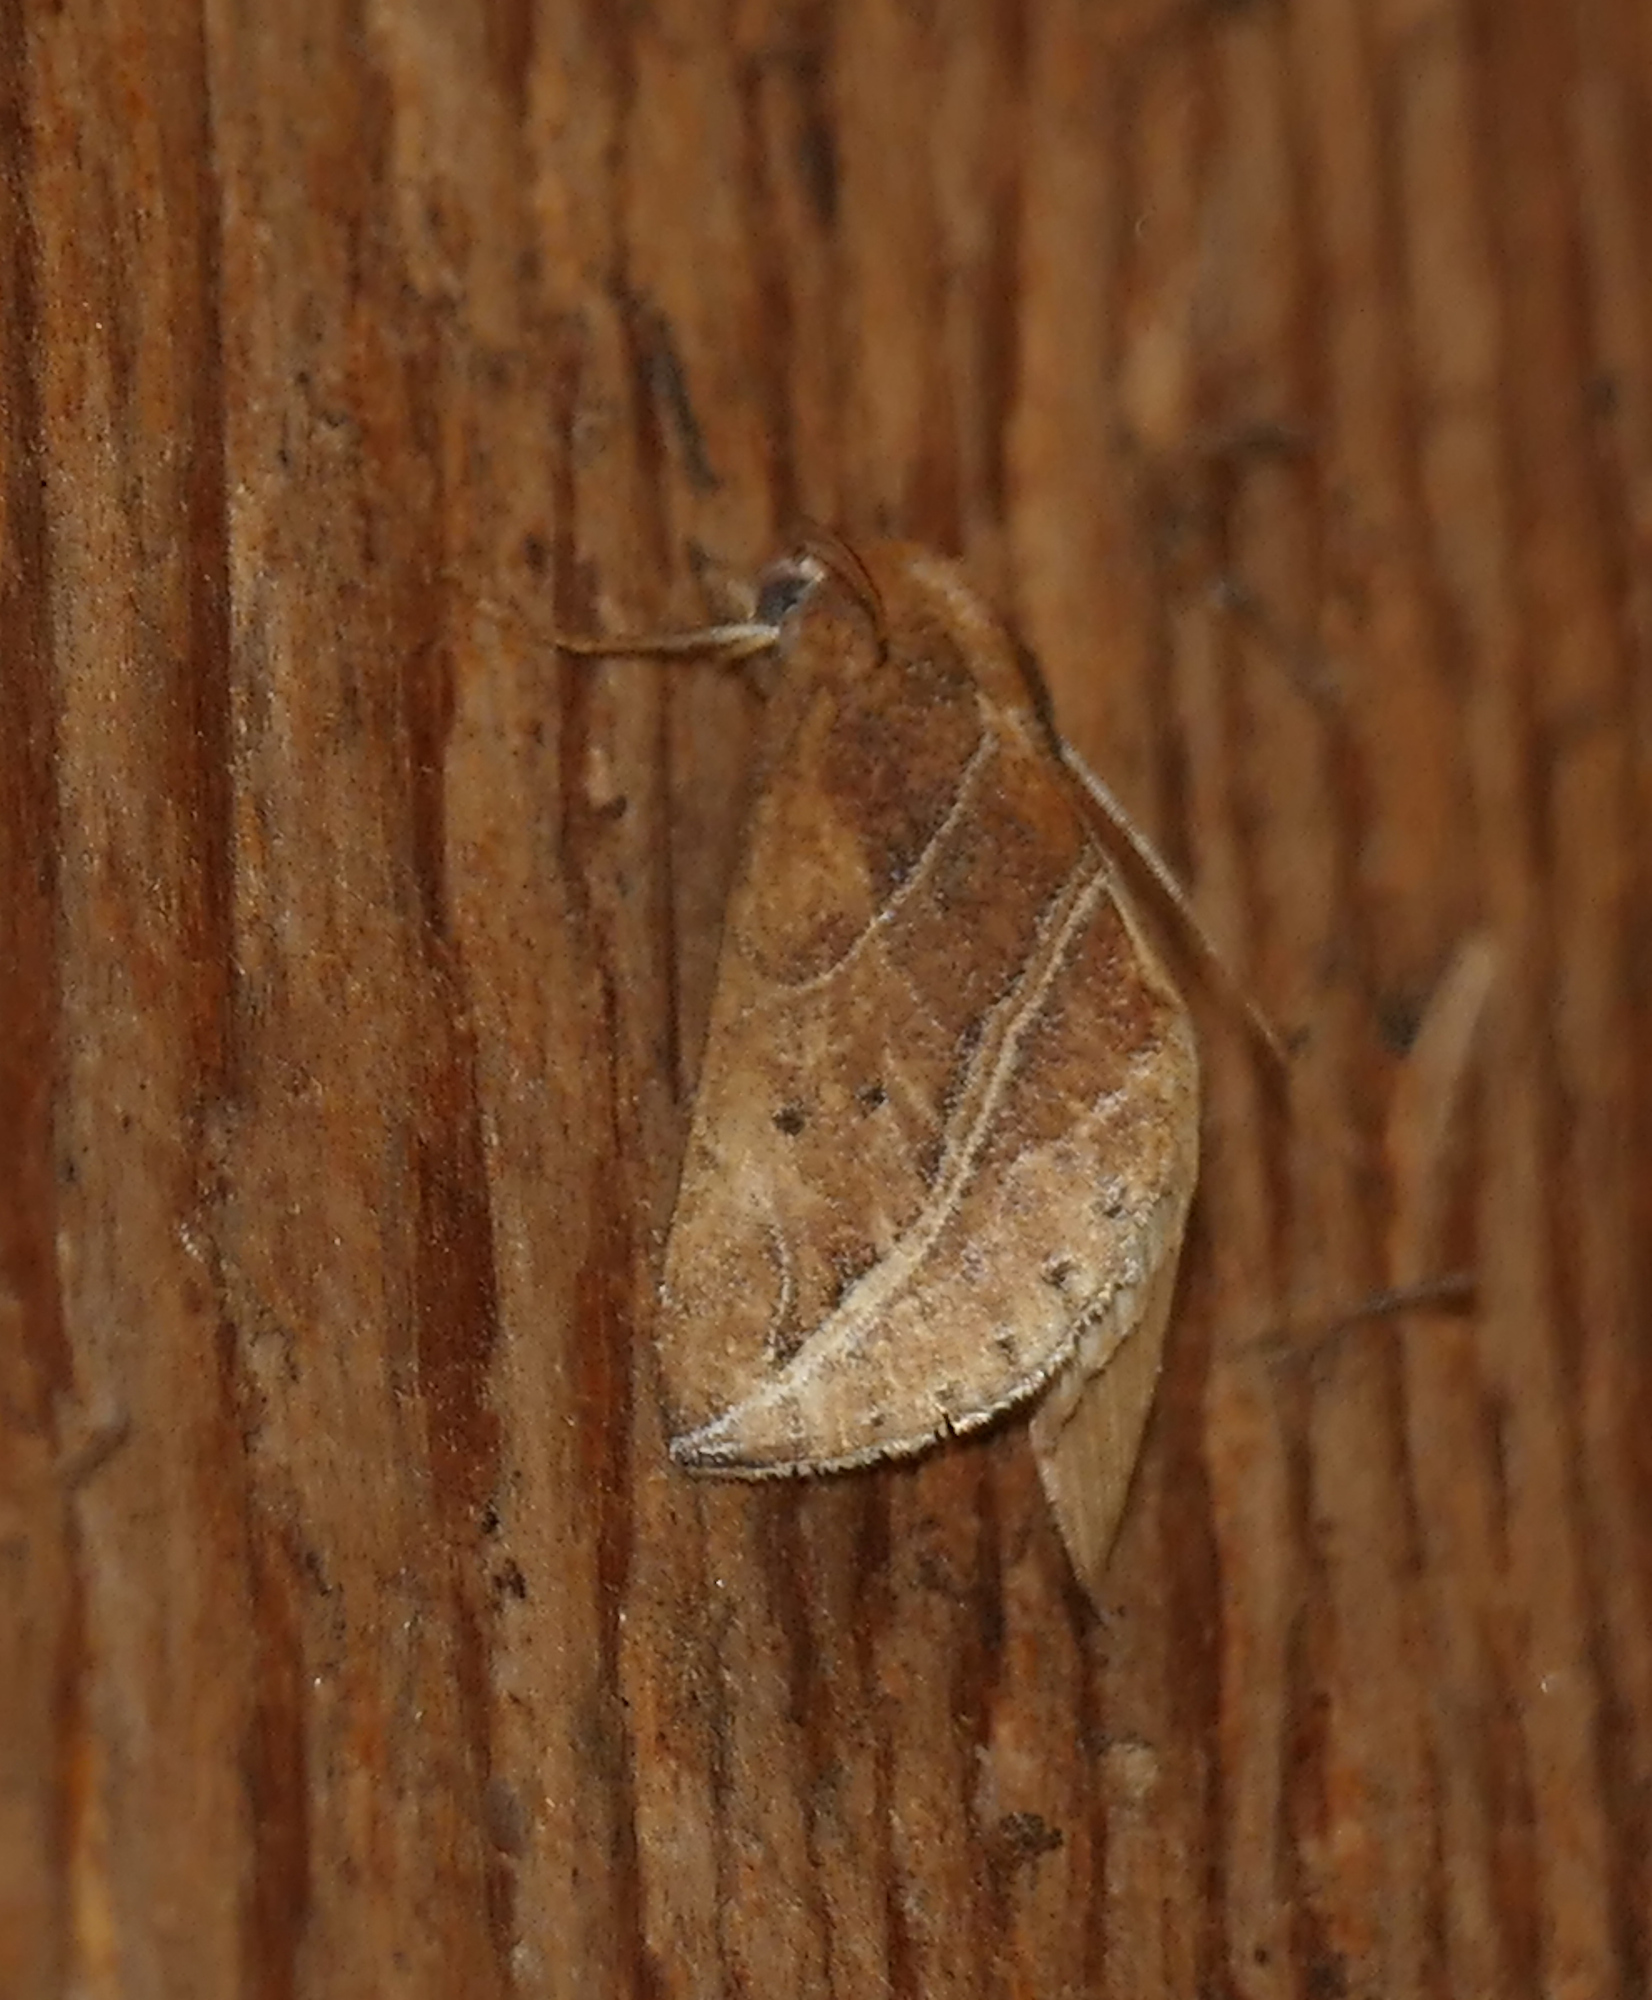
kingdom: Animalia
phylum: Arthropoda
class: Insecta
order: Lepidoptera
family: Erebidae
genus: Phyprosopus
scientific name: Phyprosopus callitrichoides
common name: Curved-lined owlet
